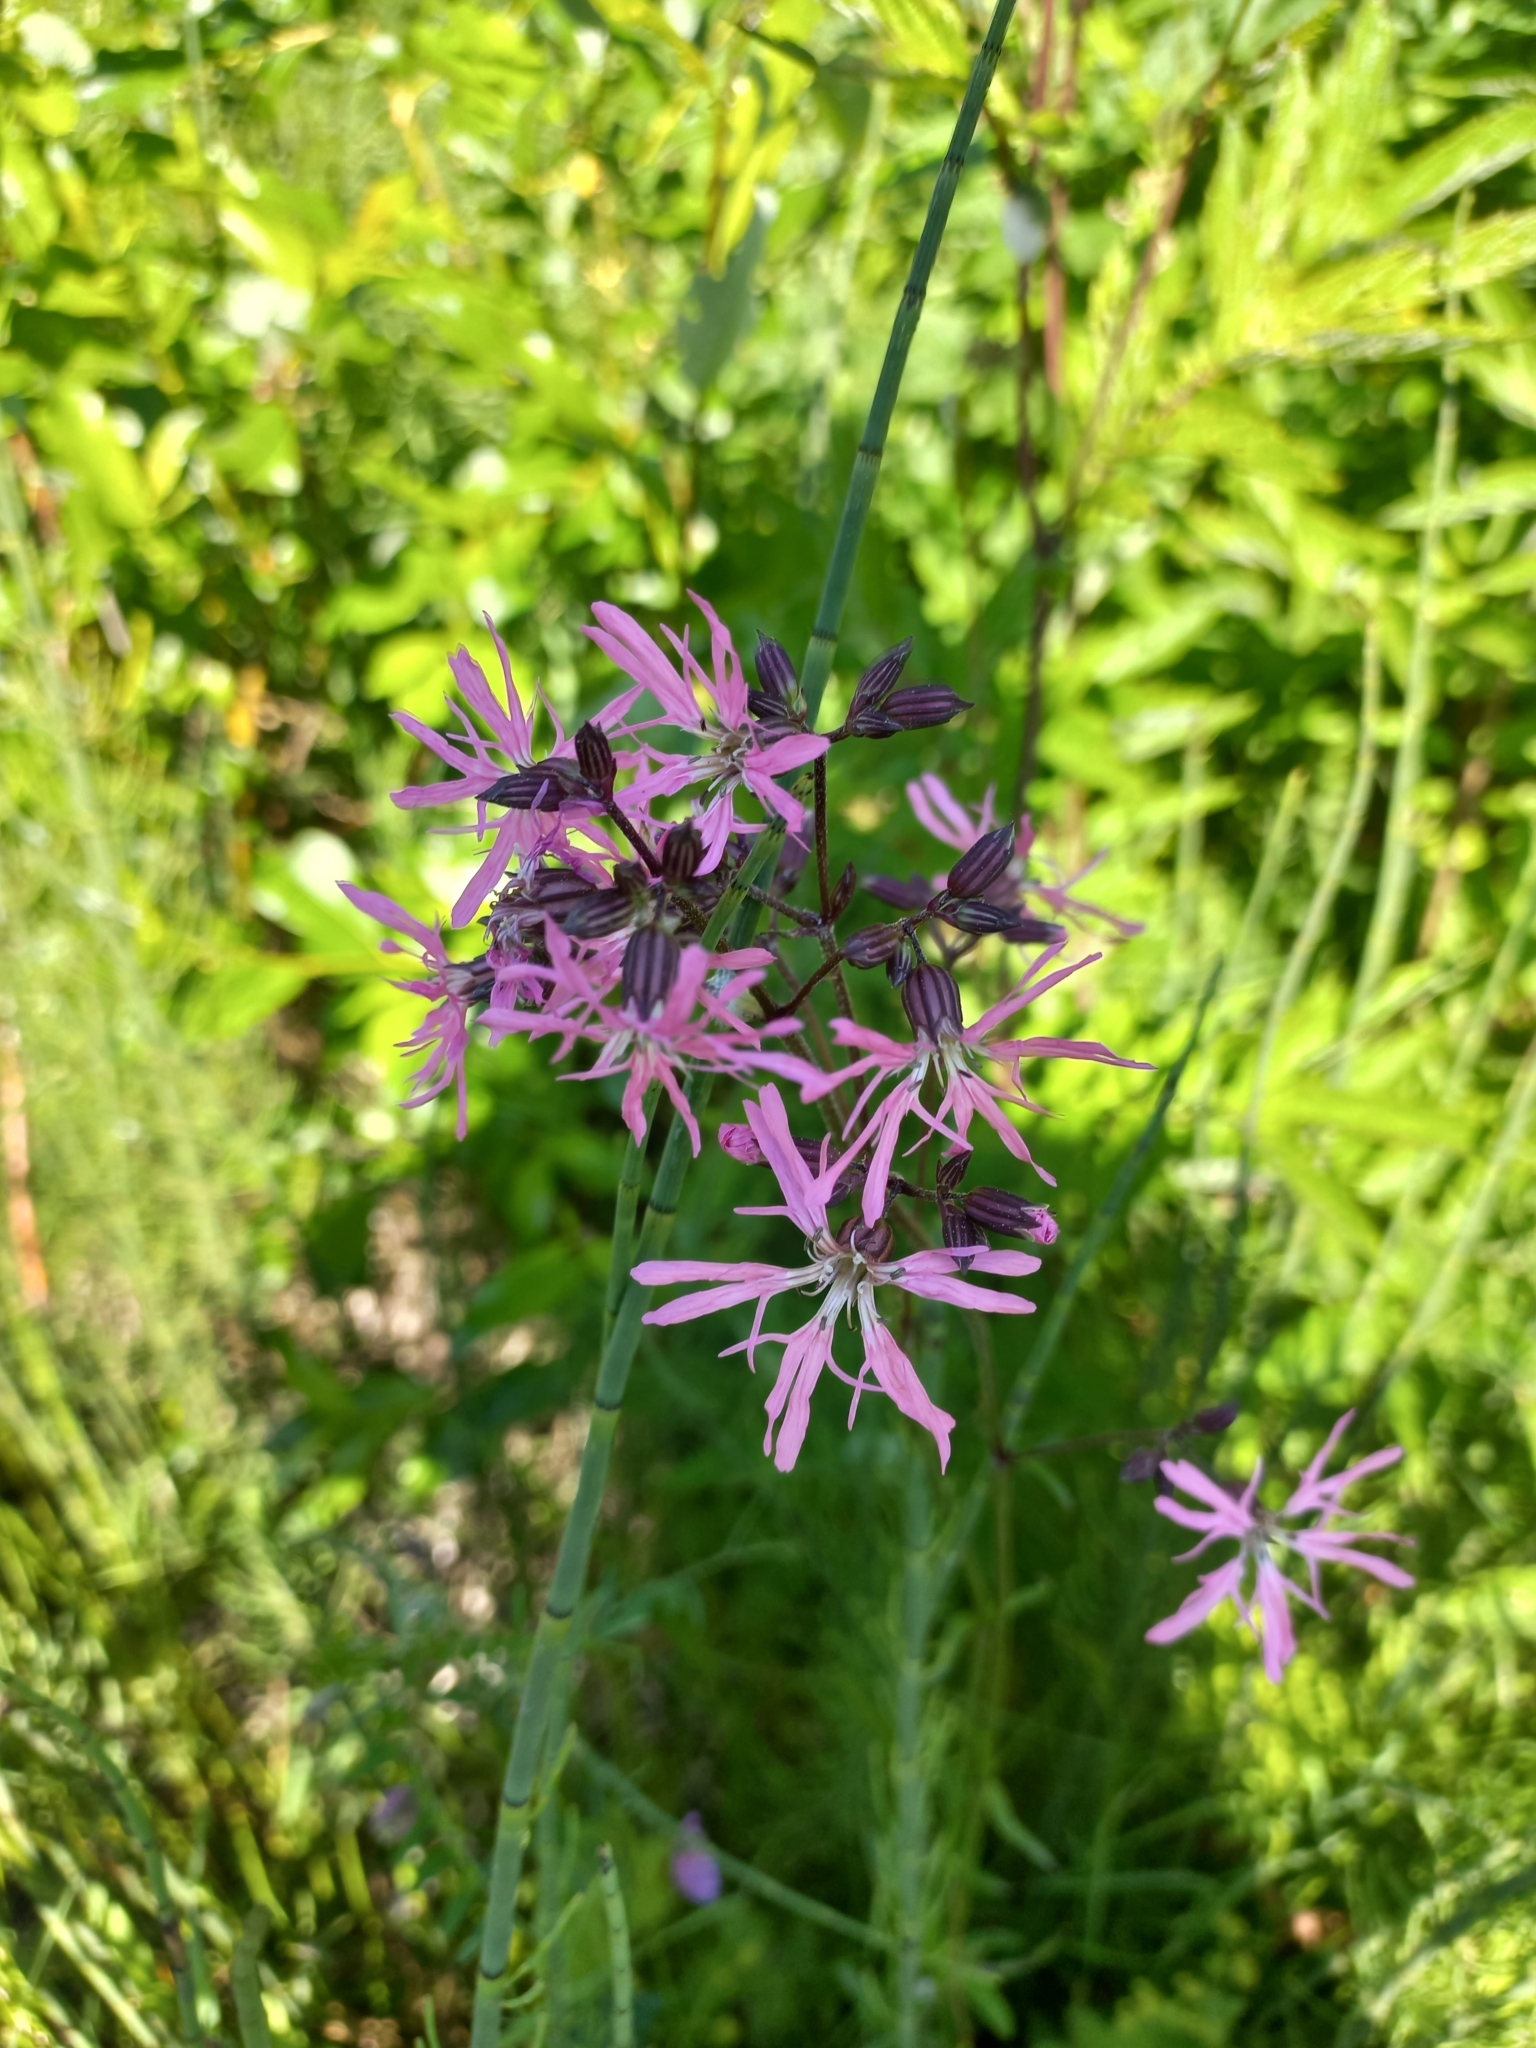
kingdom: Plantae
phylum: Tracheophyta
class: Magnoliopsida
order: Caryophyllales
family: Caryophyllaceae
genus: Silene
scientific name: Silene flos-cuculi
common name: Ragged-robin
